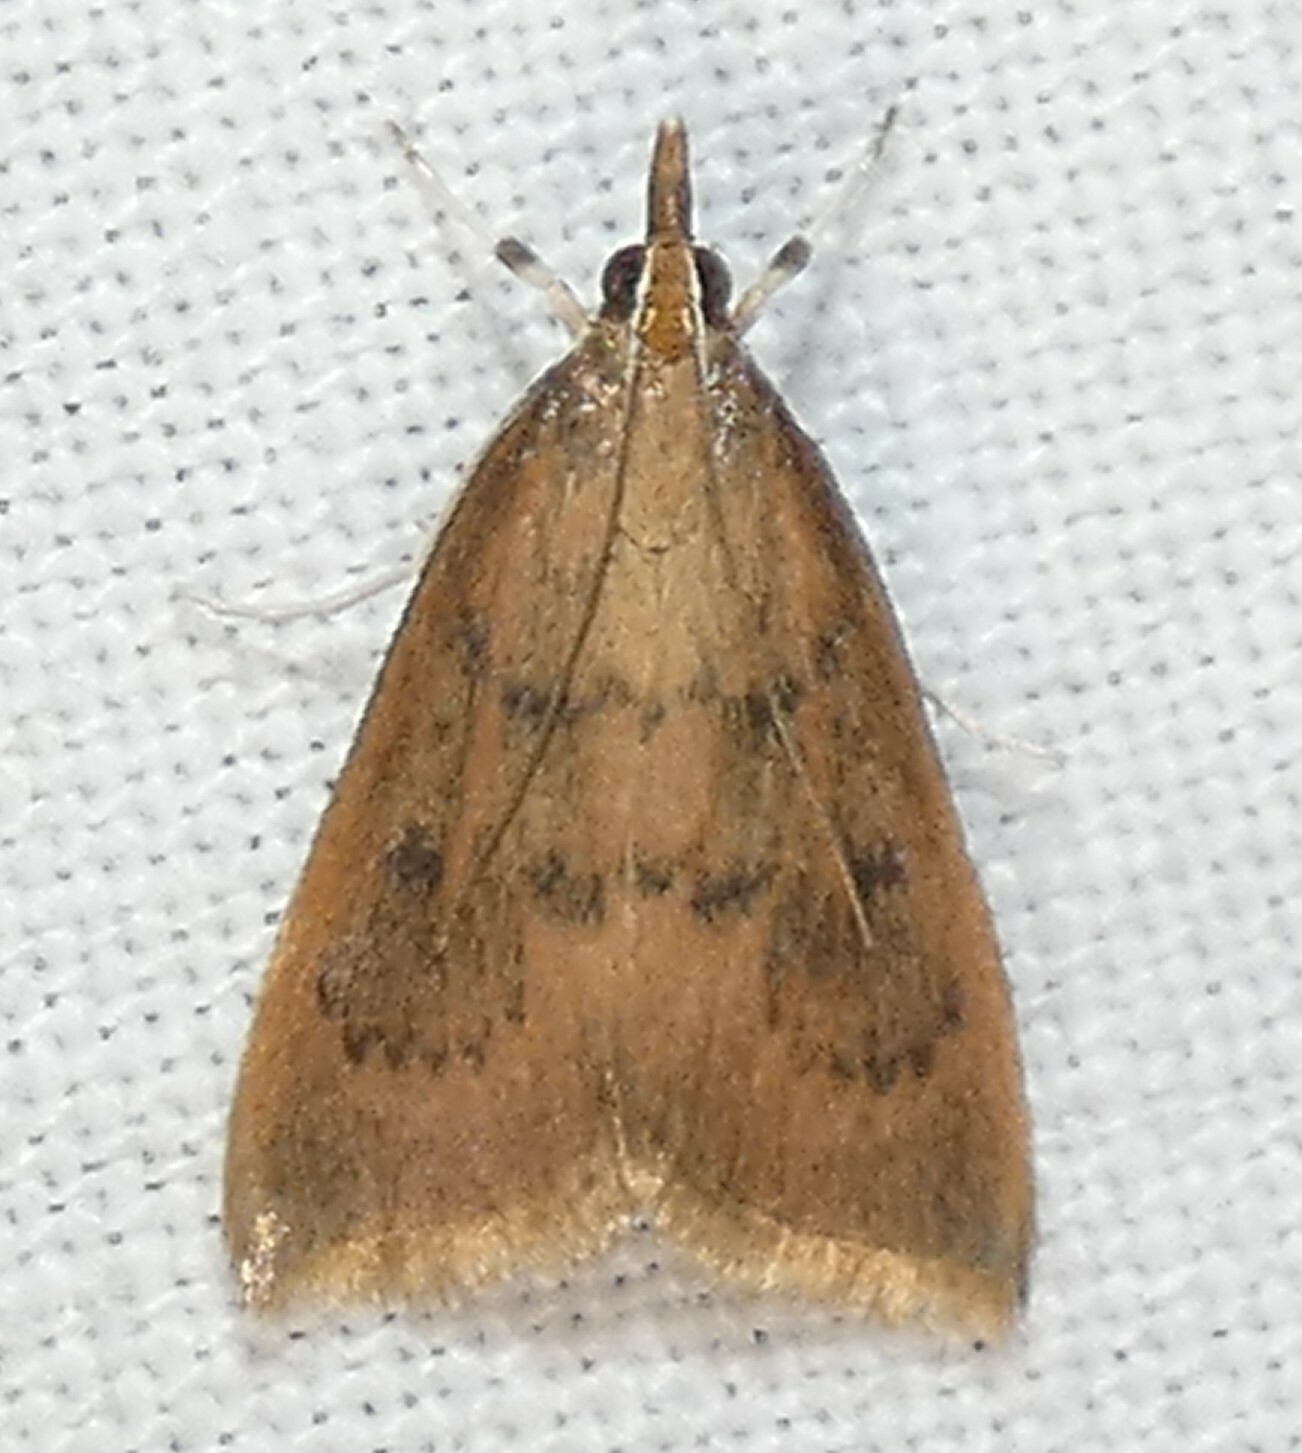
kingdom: Animalia
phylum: Arthropoda
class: Insecta
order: Lepidoptera
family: Crambidae
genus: Oenobotys
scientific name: Oenobotys vinotinctalis
